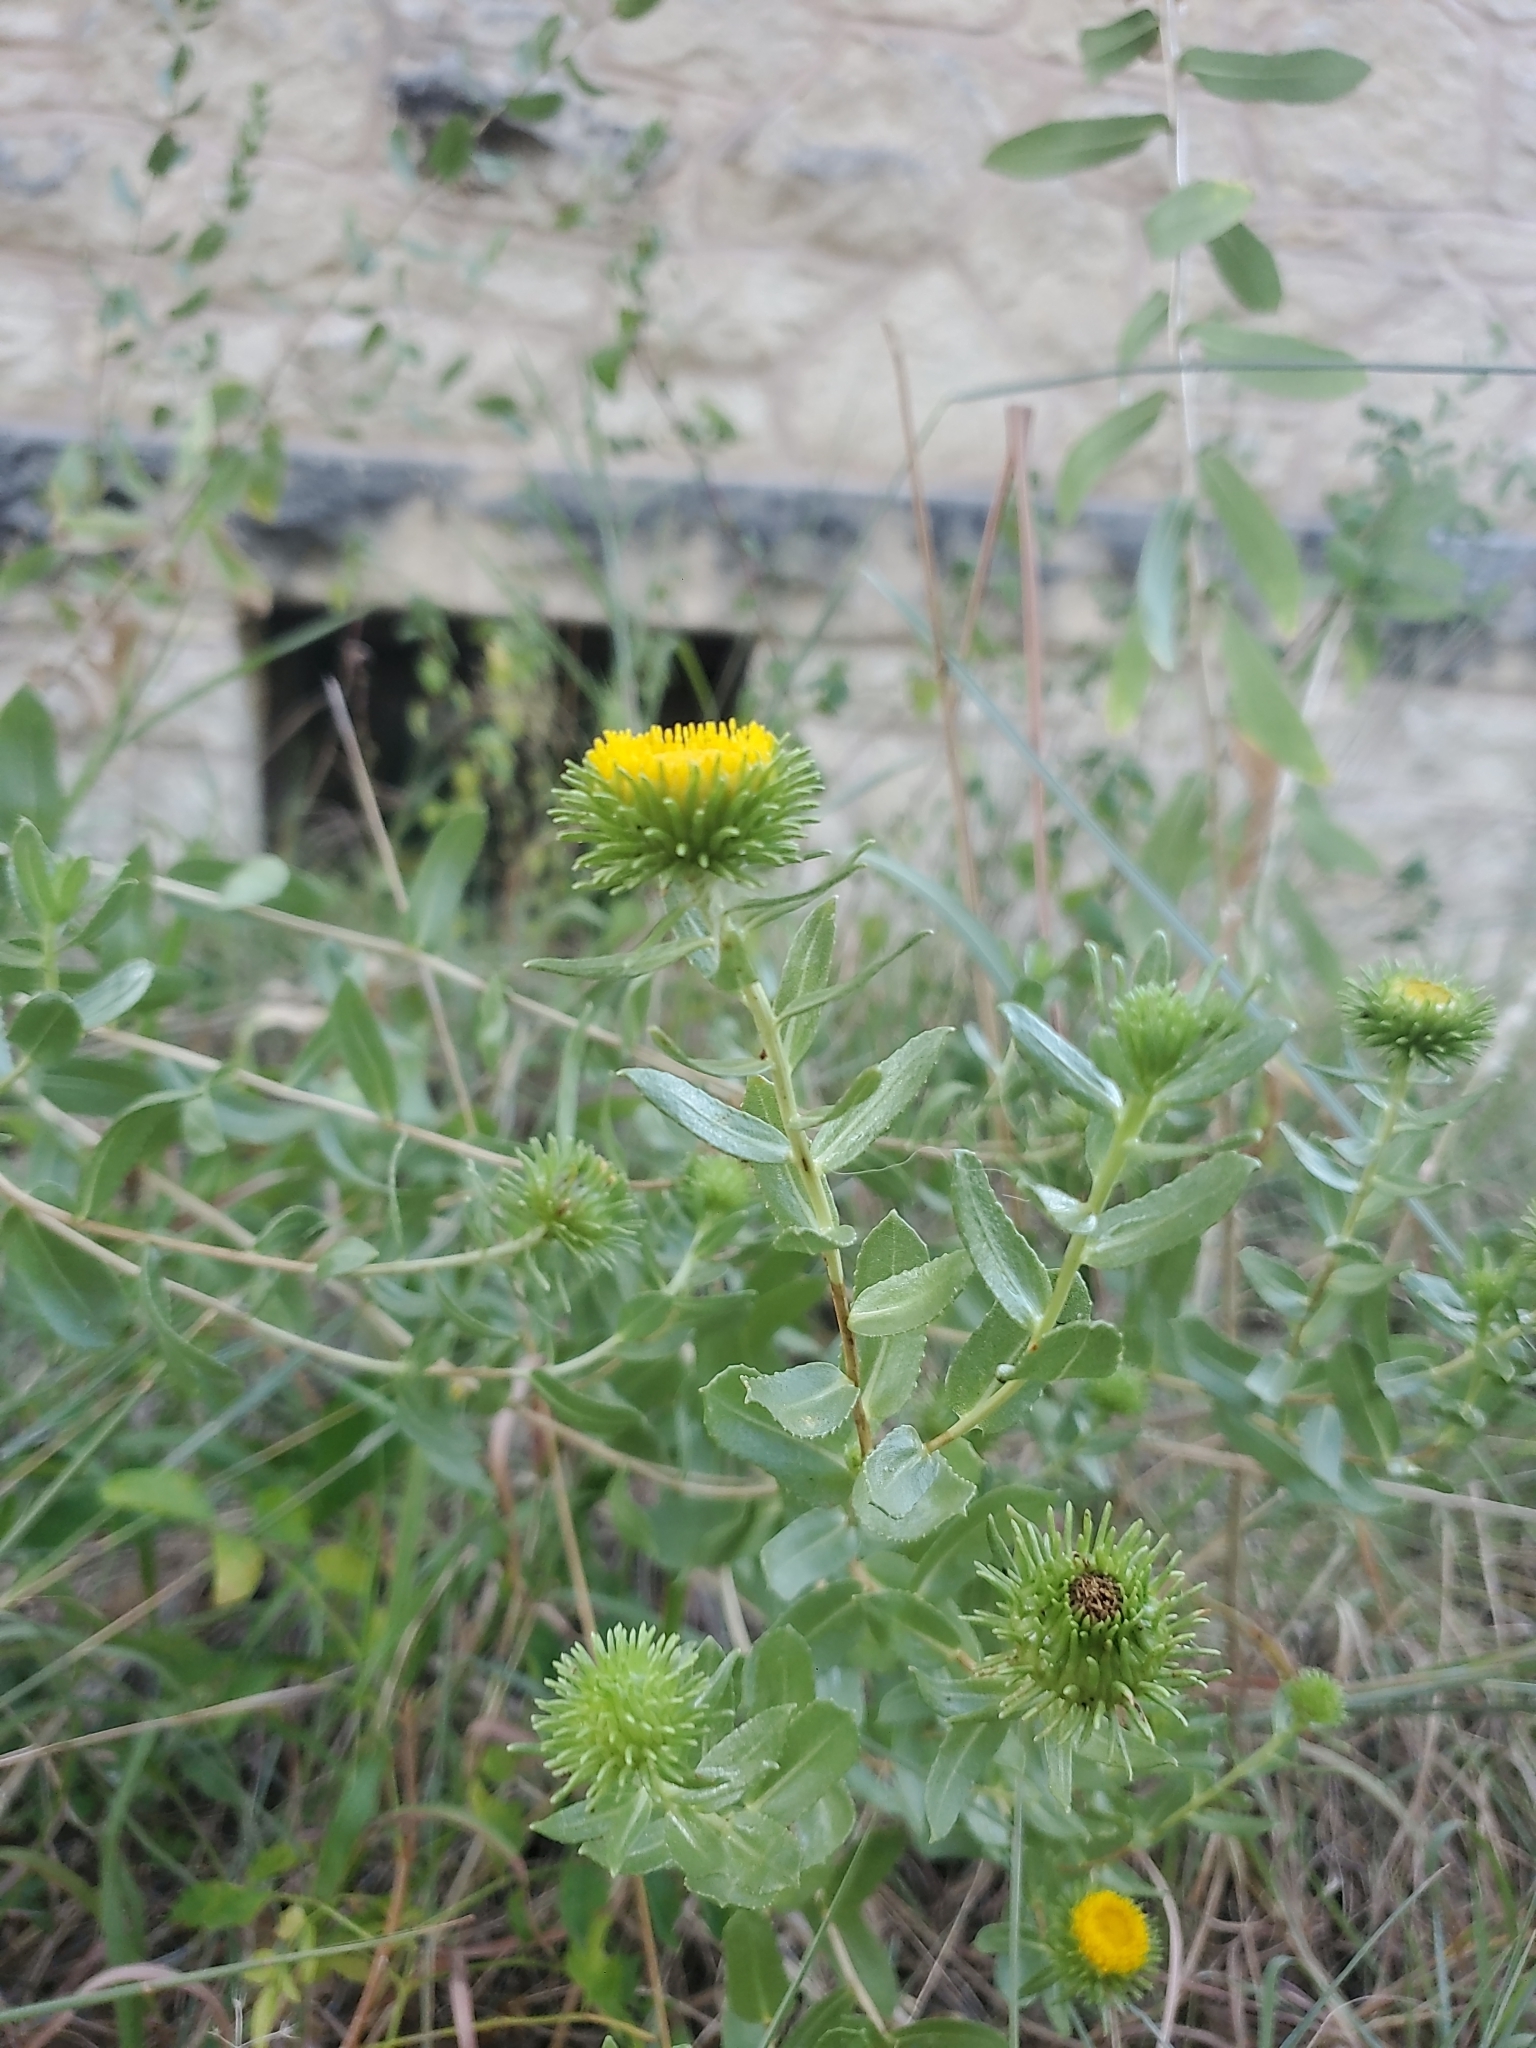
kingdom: Plantae
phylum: Tracheophyta
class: Magnoliopsida
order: Asterales
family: Asteraceae
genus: Grindelia
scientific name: Grindelia nuda
